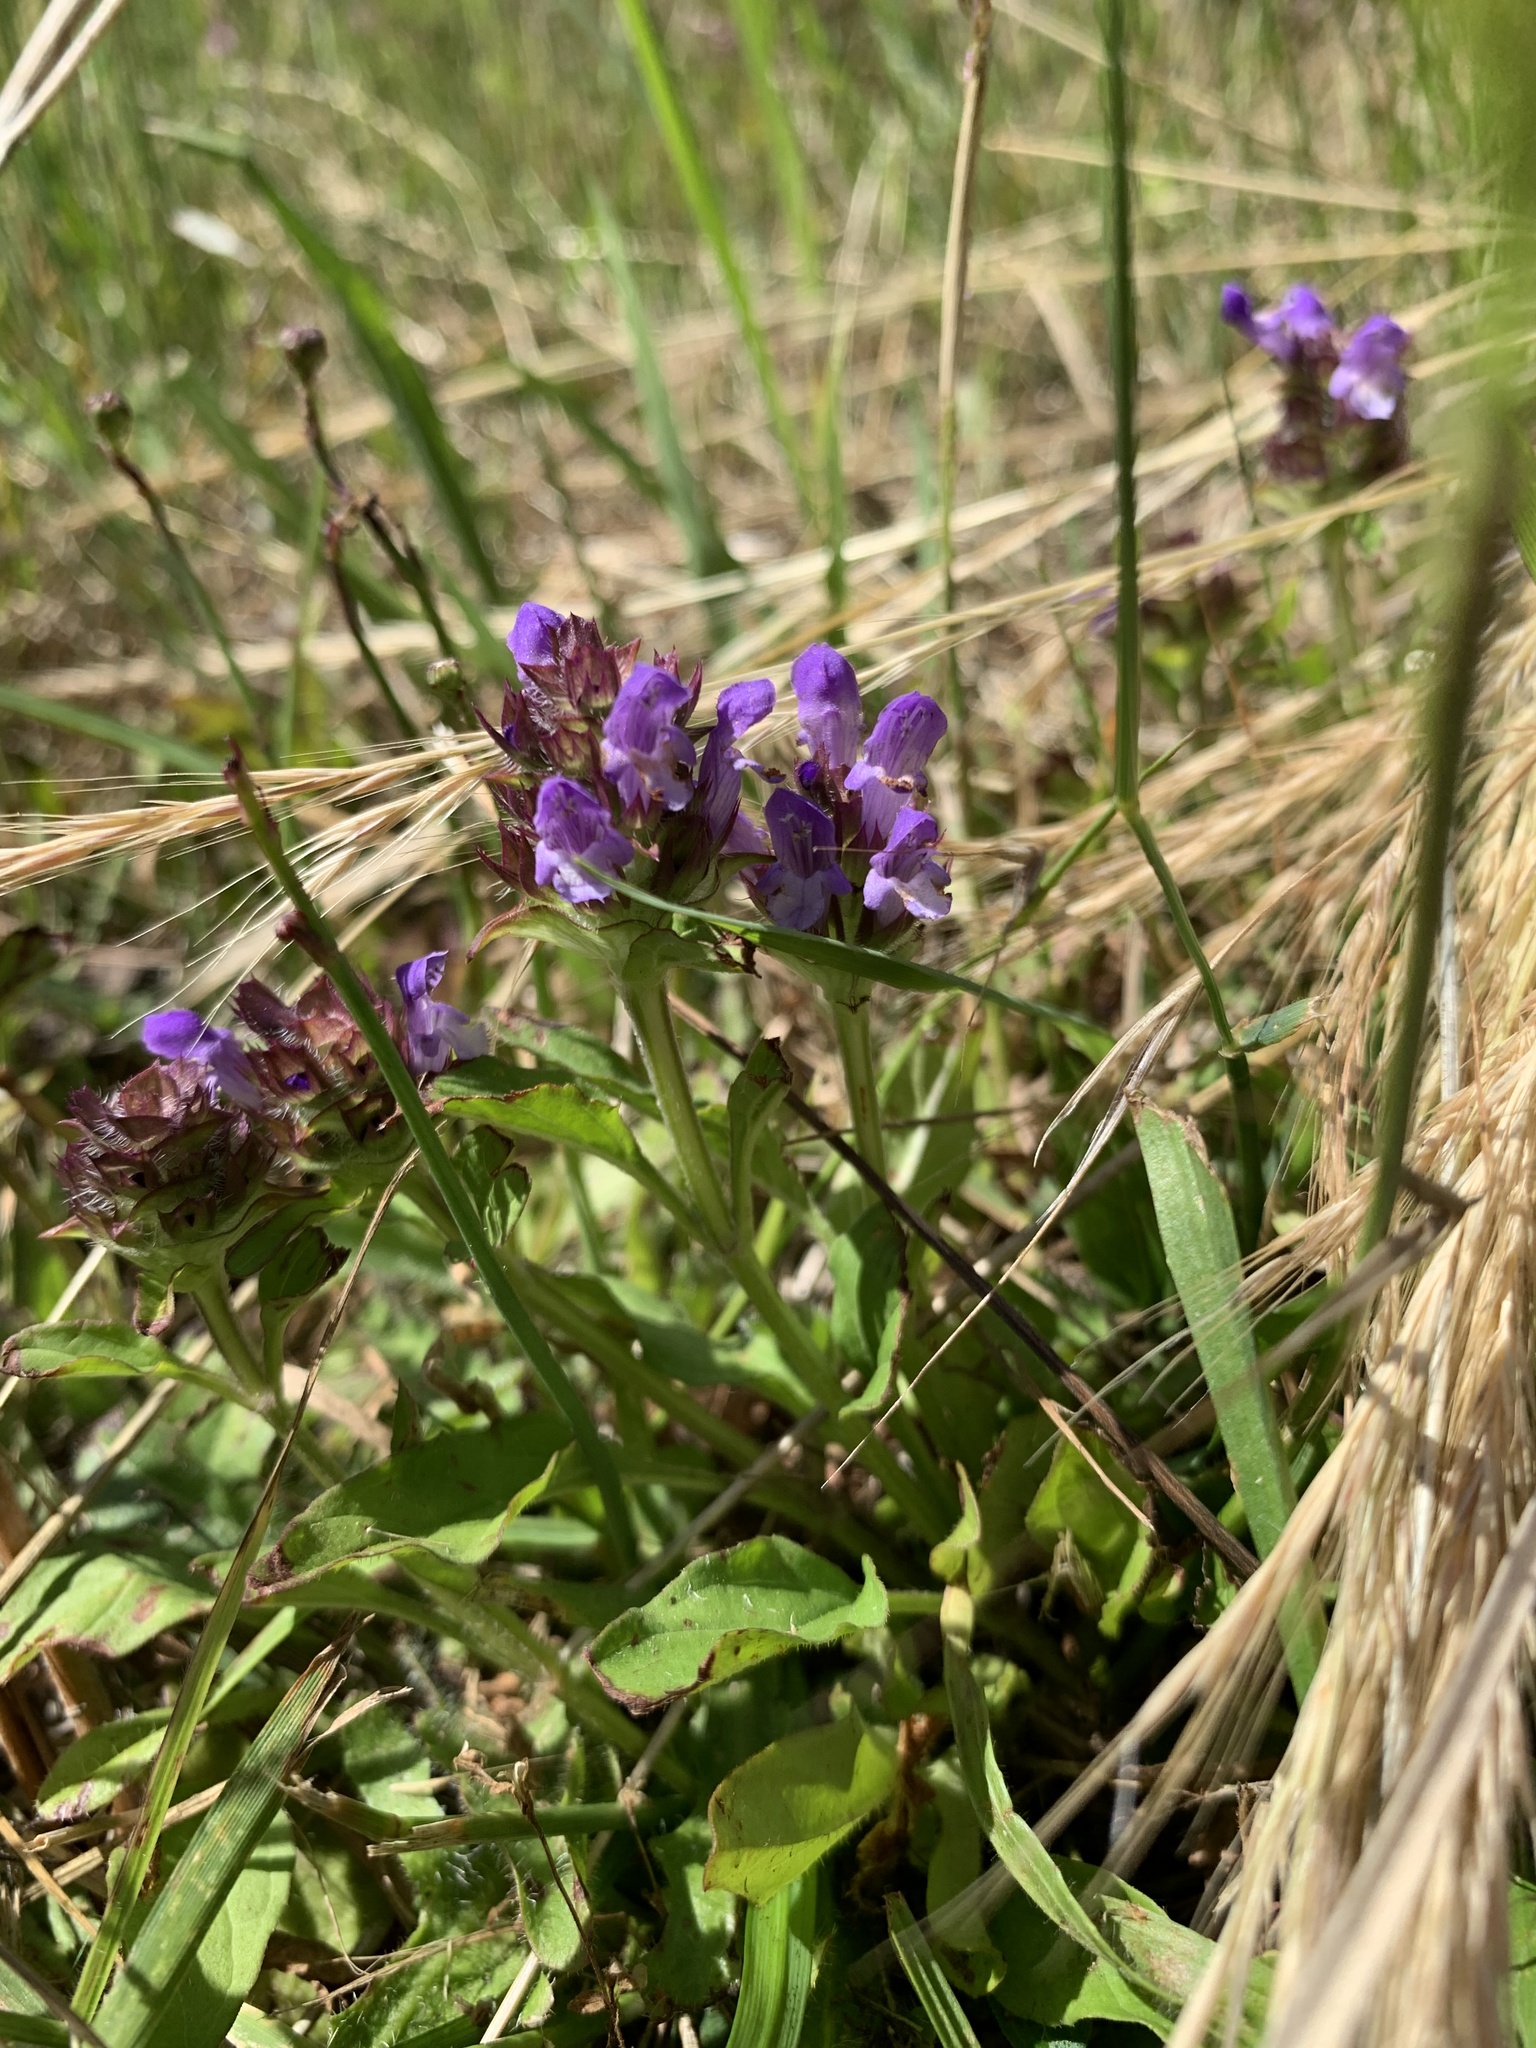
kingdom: Plantae
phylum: Tracheophyta
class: Magnoliopsida
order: Lamiales
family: Lamiaceae
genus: Prunella
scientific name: Prunella vulgaris
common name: Heal-all
